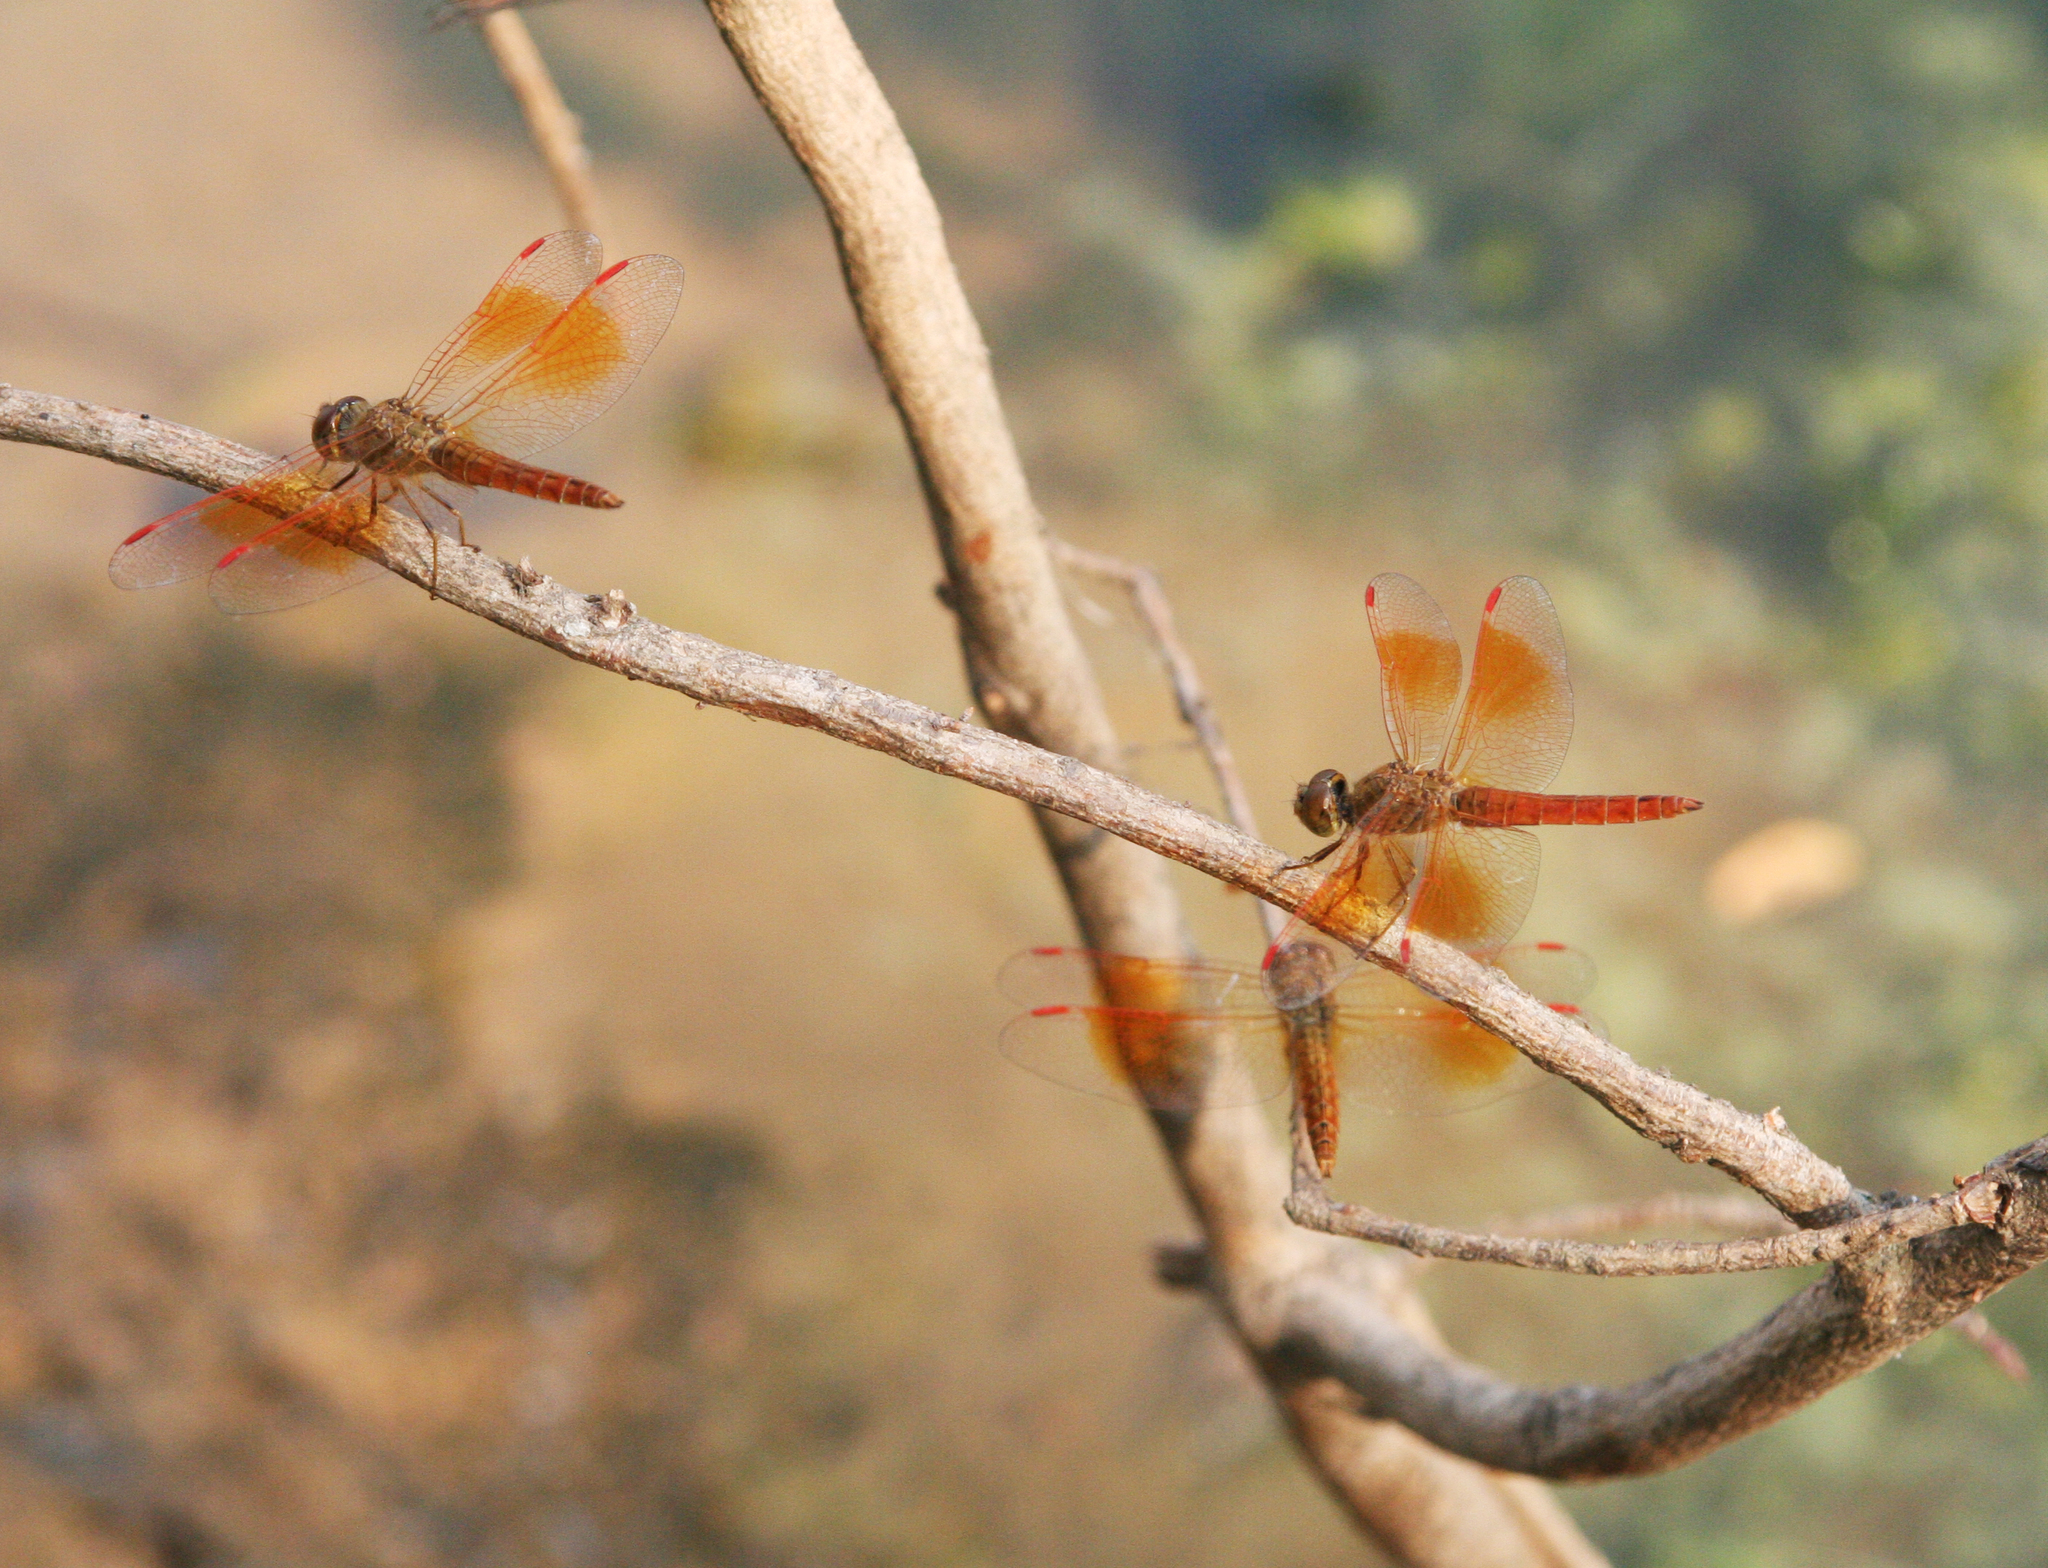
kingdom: Animalia
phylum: Arthropoda
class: Insecta
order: Odonata
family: Libellulidae
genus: Brachythemis
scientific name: Brachythemis contaminata
